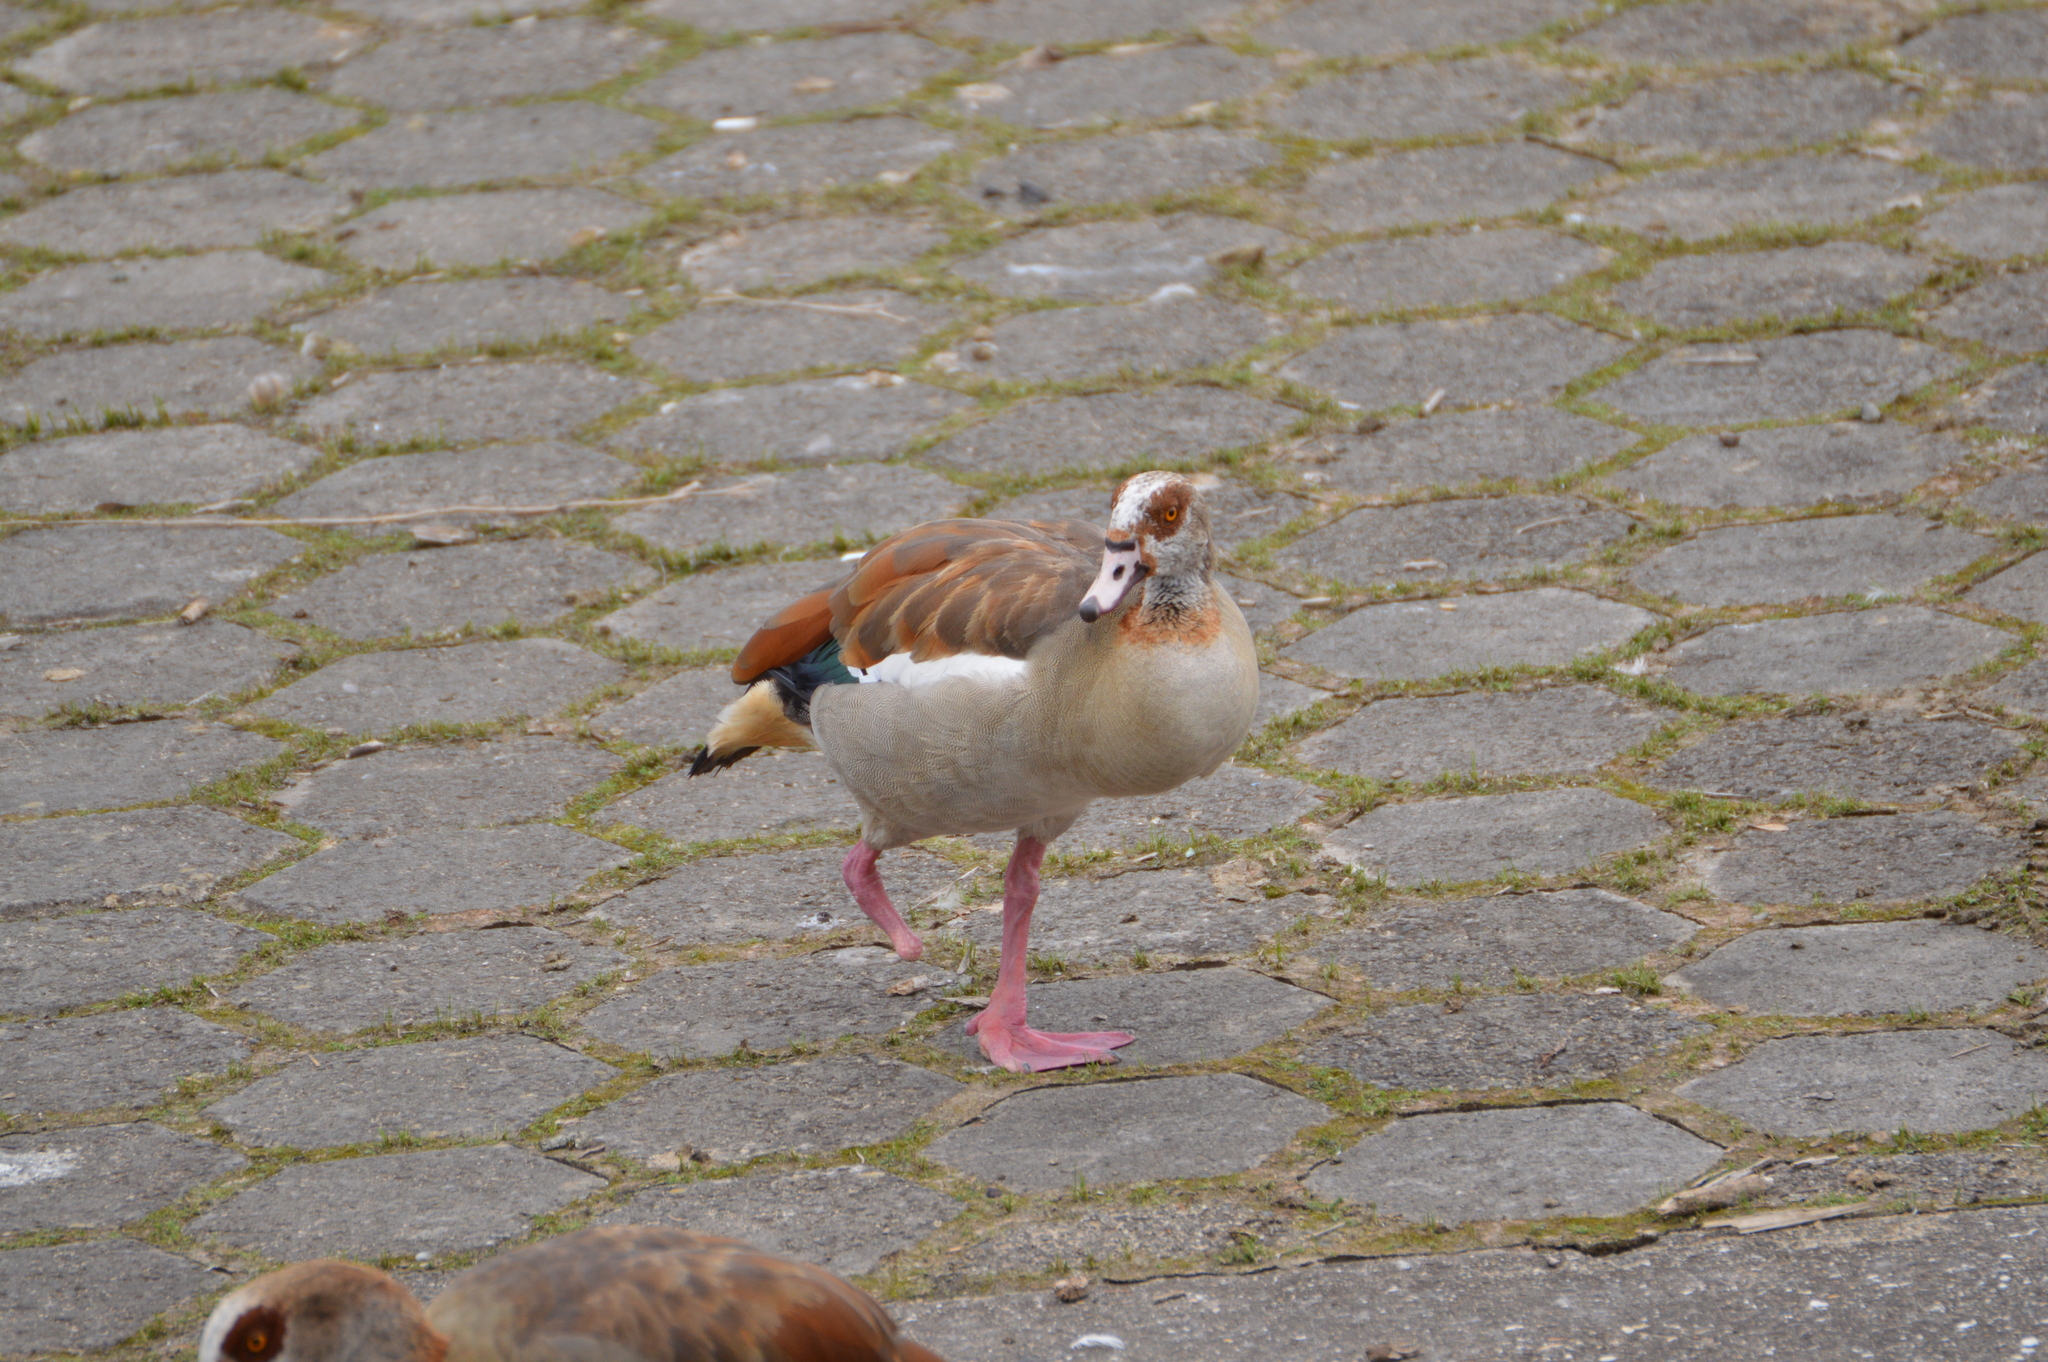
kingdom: Animalia
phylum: Chordata
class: Aves
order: Anseriformes
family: Anatidae
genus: Alopochen
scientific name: Alopochen aegyptiaca
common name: Egyptian goose
